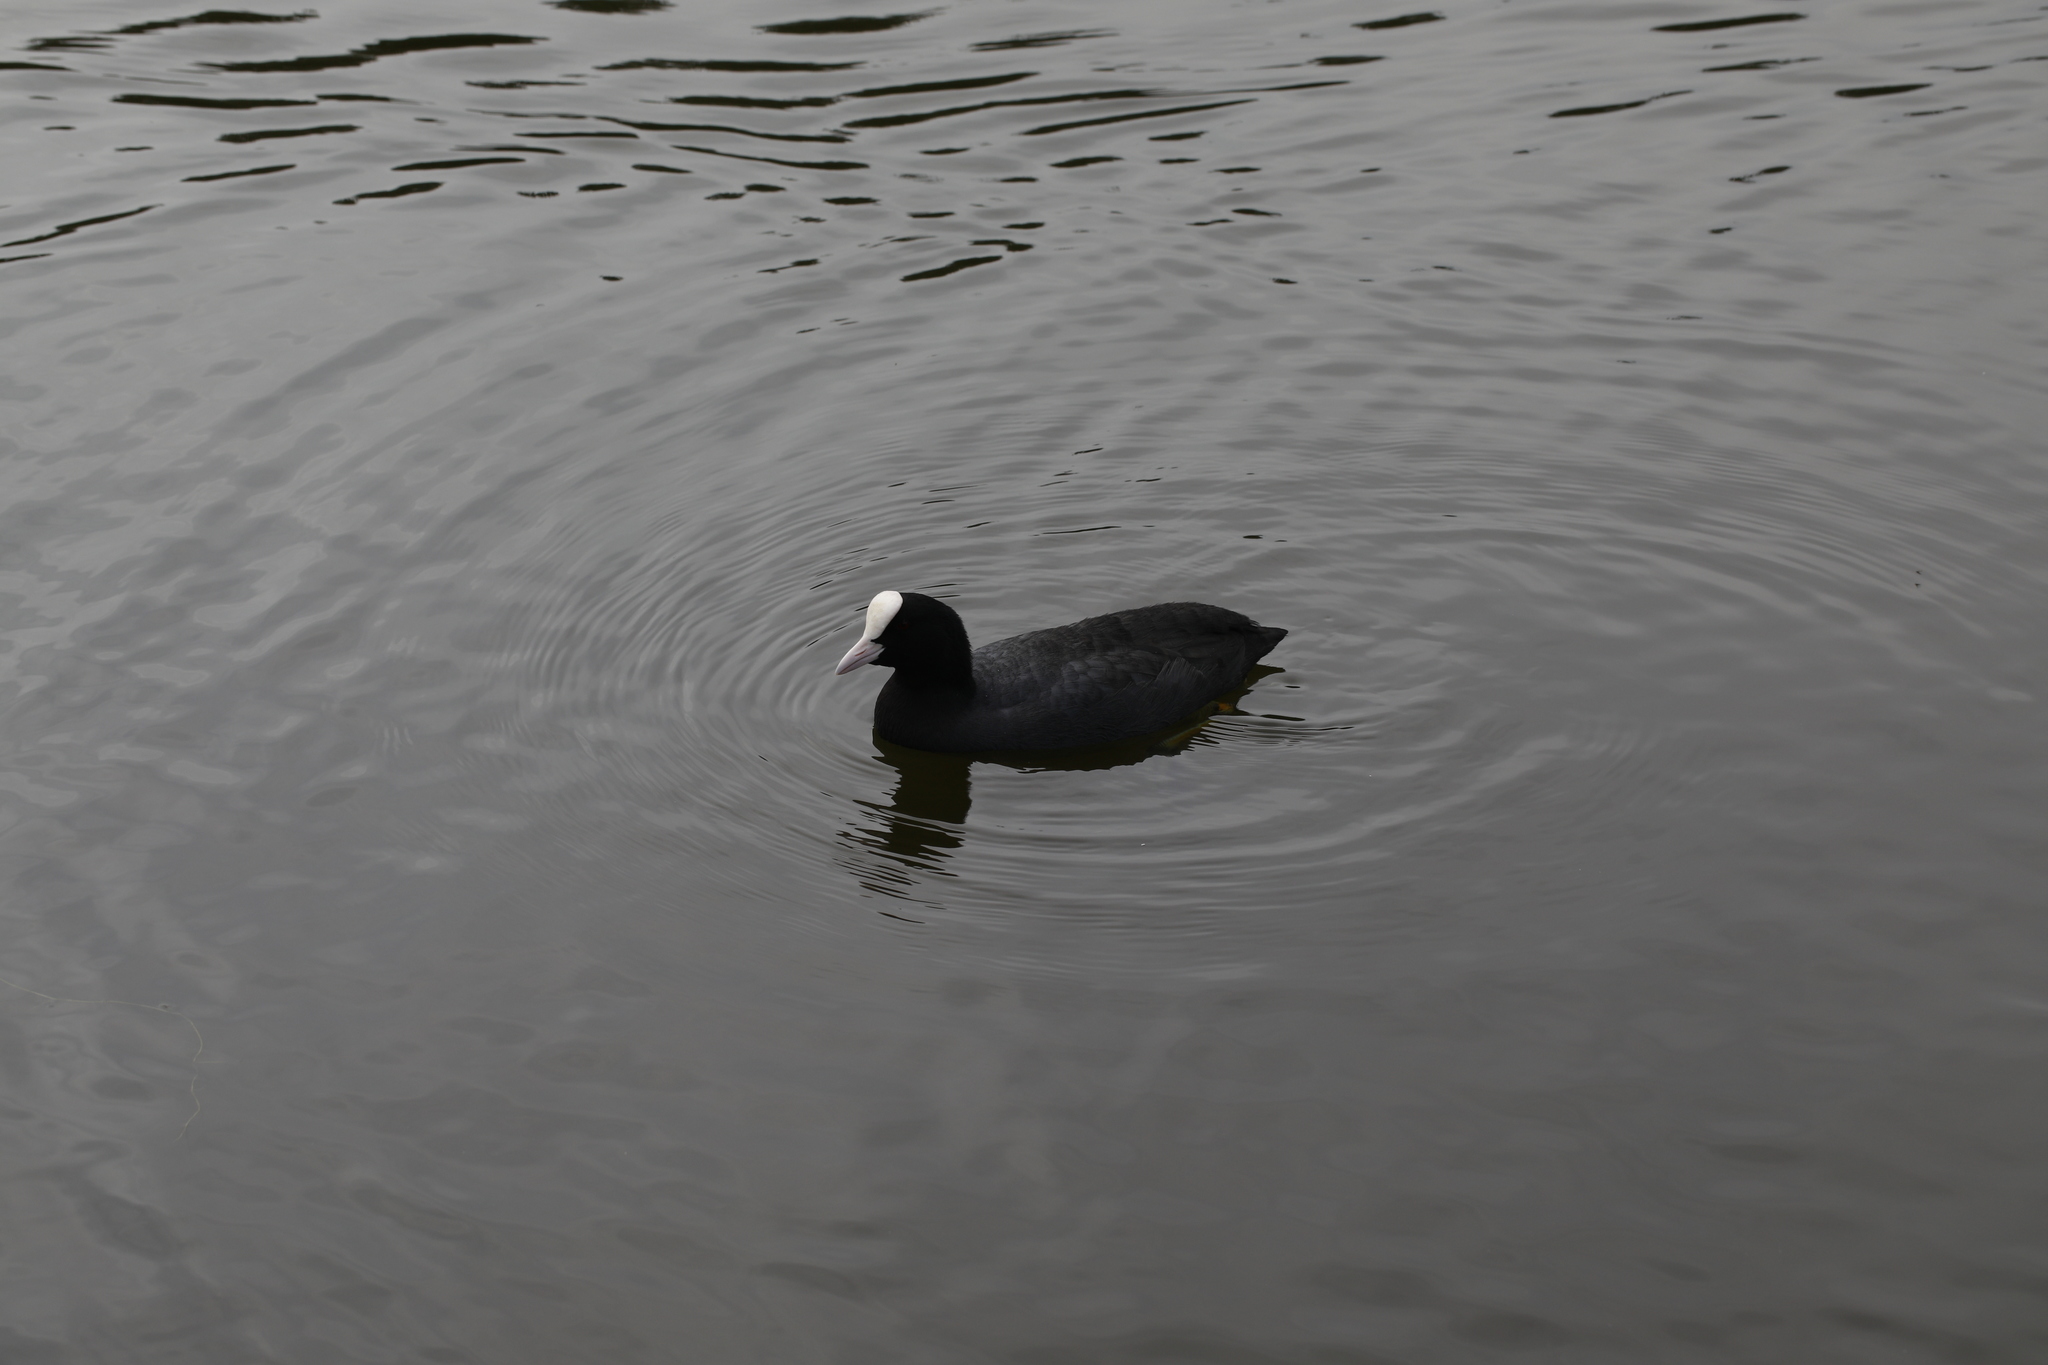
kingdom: Animalia
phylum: Chordata
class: Aves
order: Gruiformes
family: Rallidae
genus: Fulica
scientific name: Fulica atra
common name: Eurasian coot
